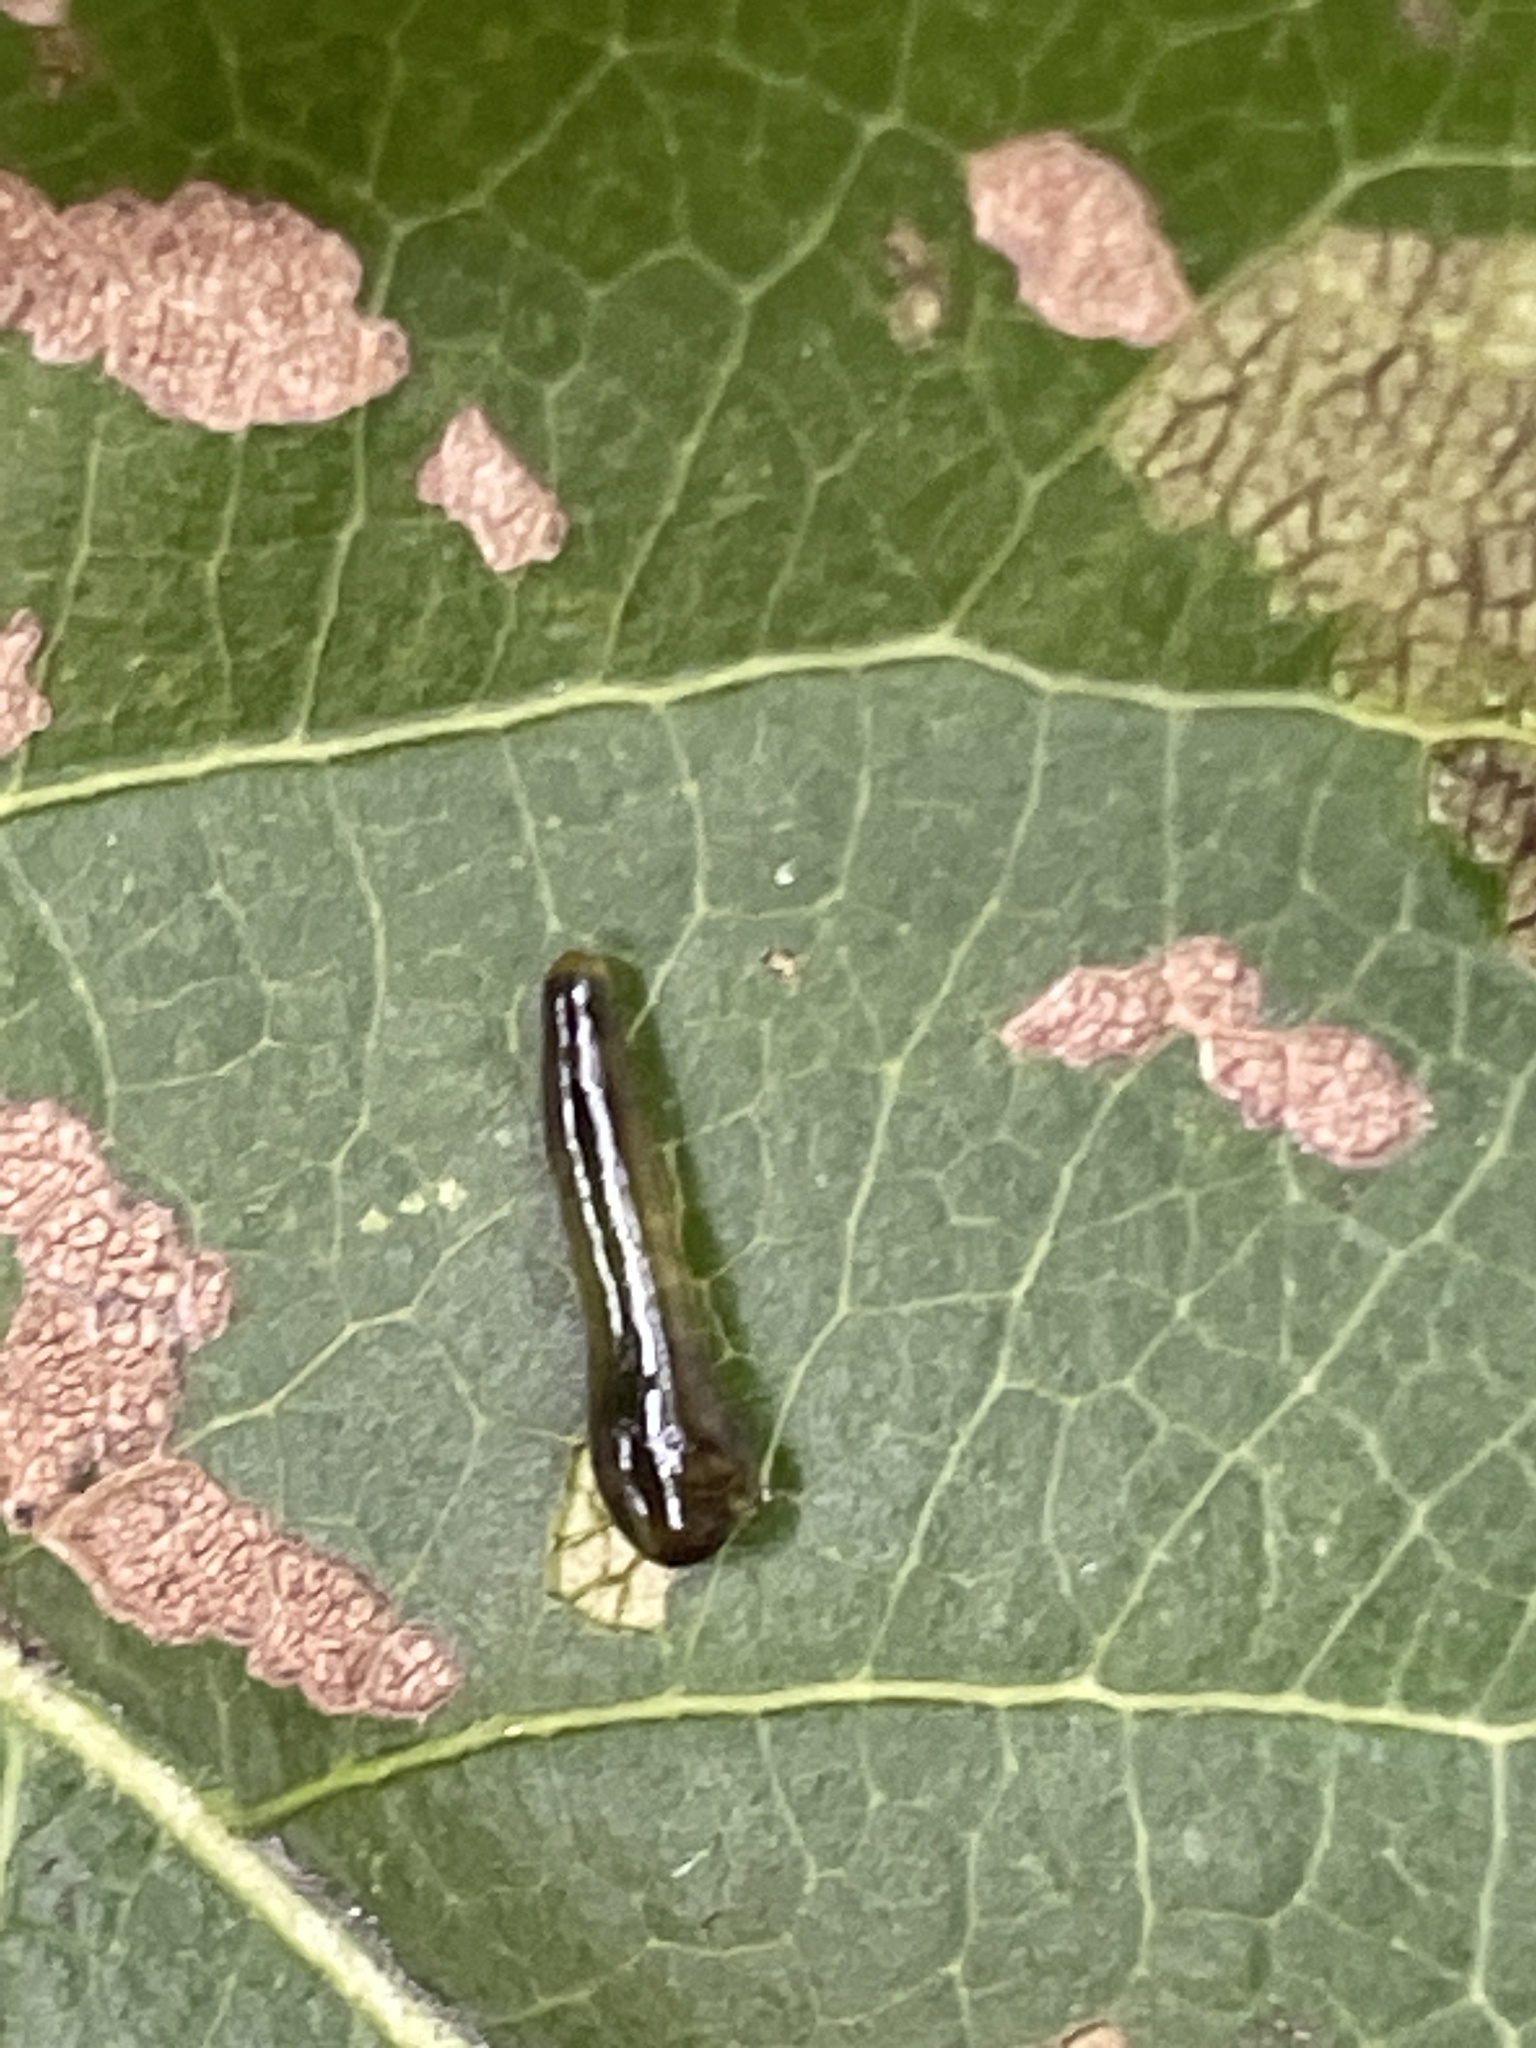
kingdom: Animalia
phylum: Arthropoda
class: Insecta
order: Hymenoptera
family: Tenthredinidae
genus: Caliroa
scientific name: Caliroa cerasi
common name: Pear sawfly
